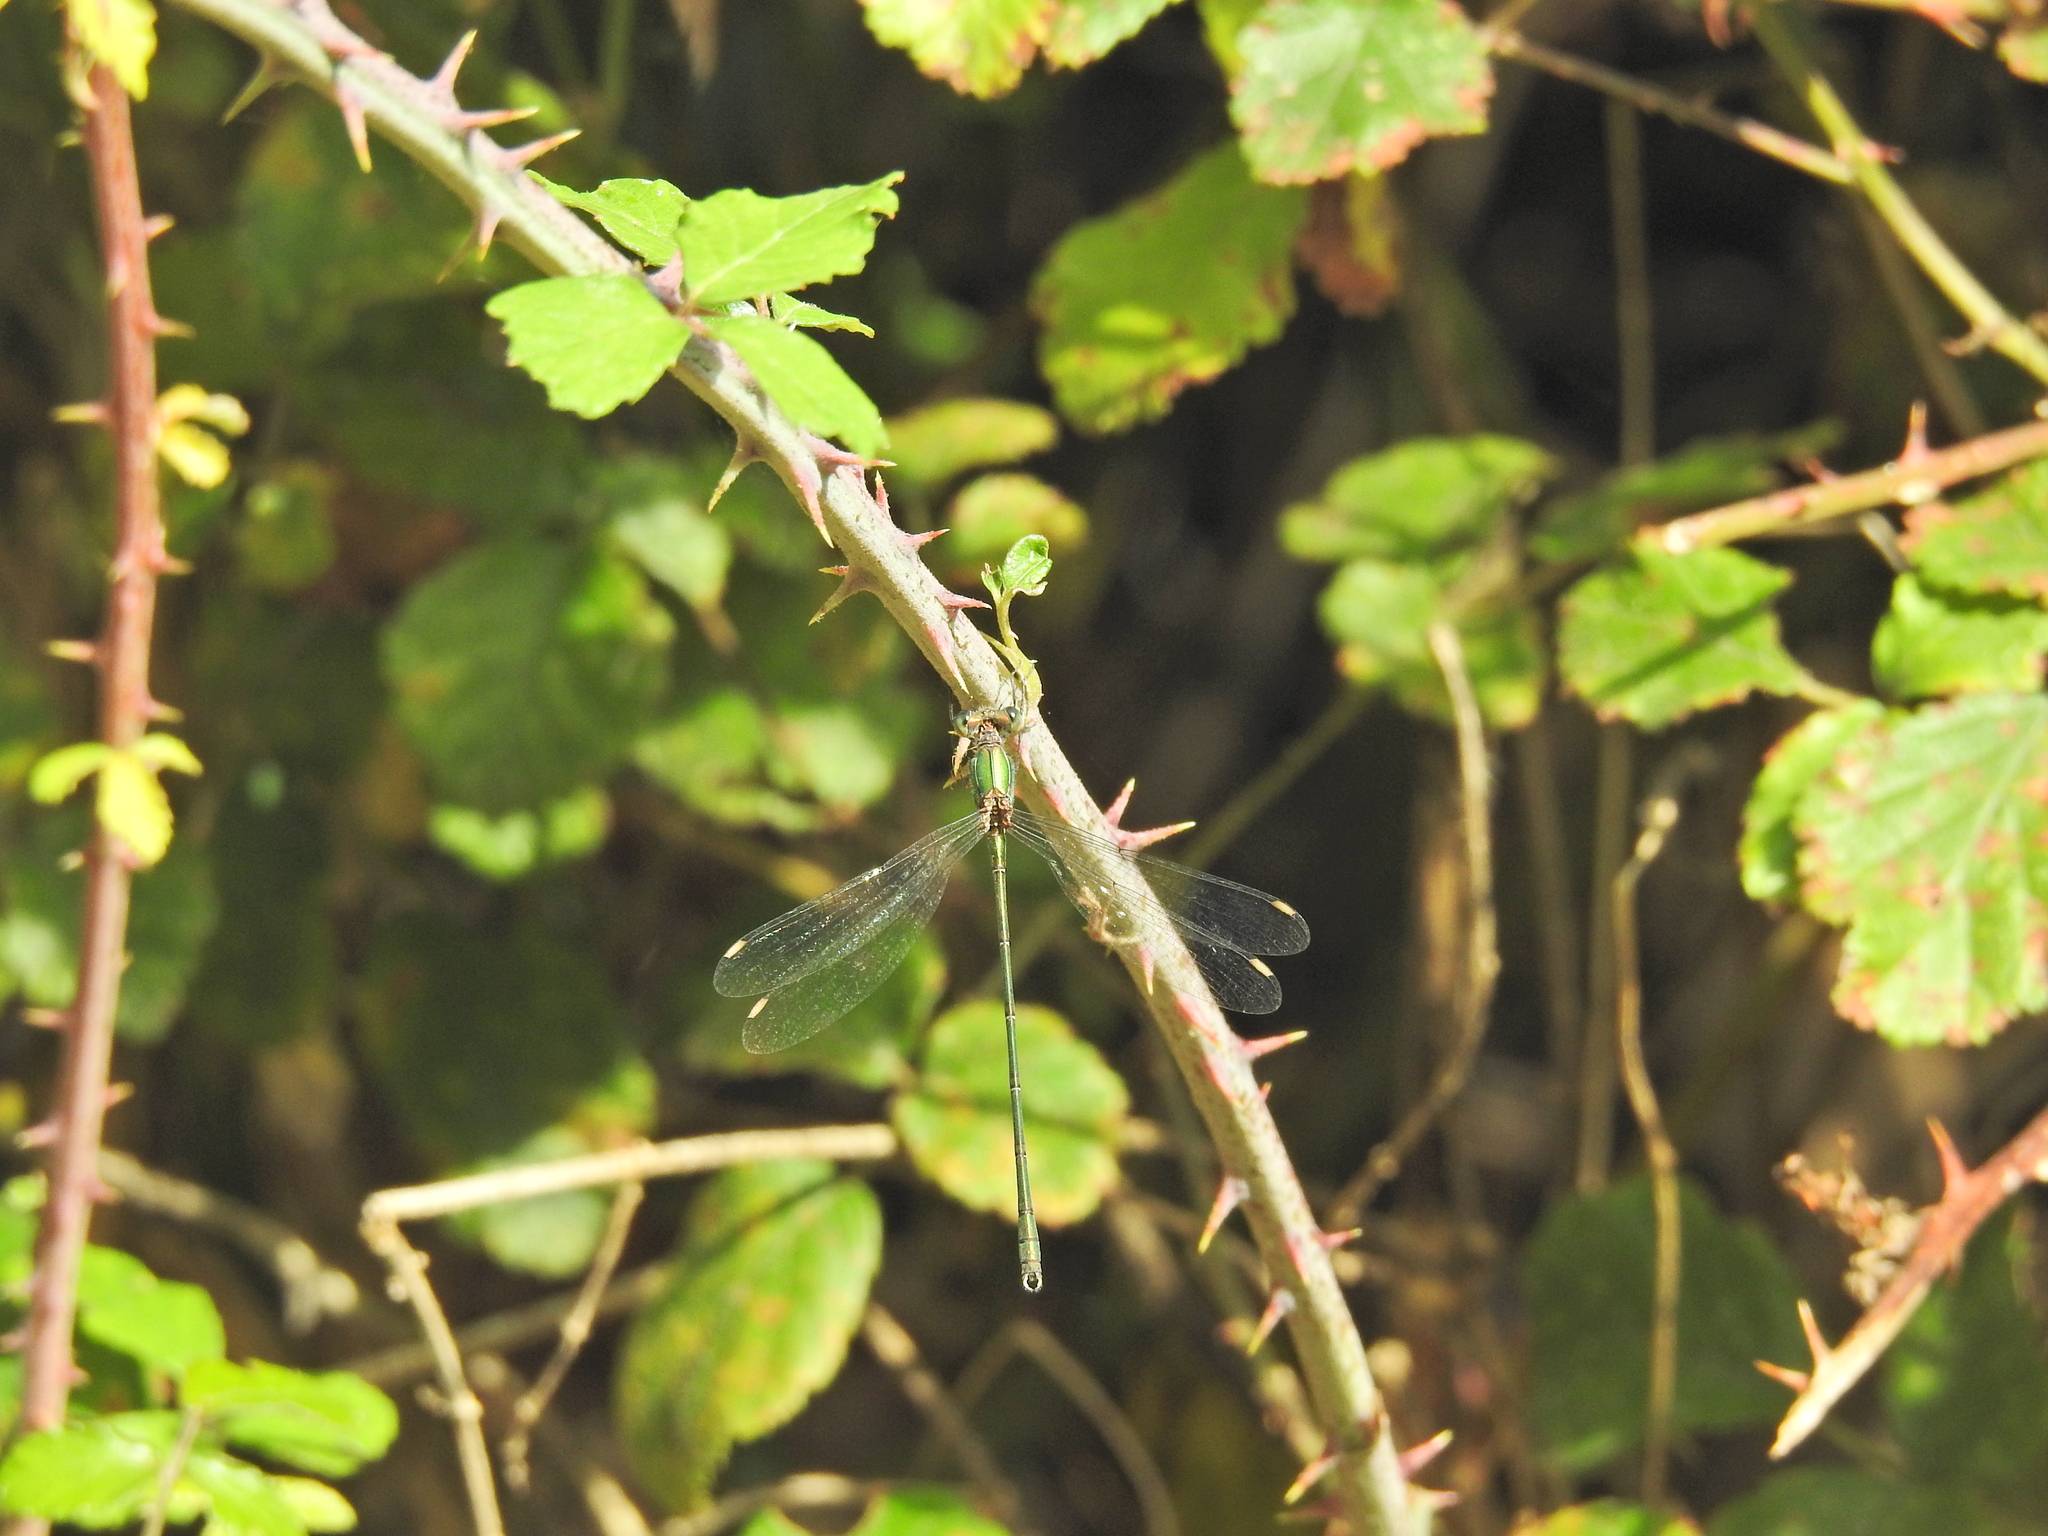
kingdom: Animalia
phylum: Arthropoda
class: Insecta
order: Odonata
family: Lestidae
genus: Chalcolestes
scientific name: Chalcolestes viridis
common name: Green emerald damselfly
